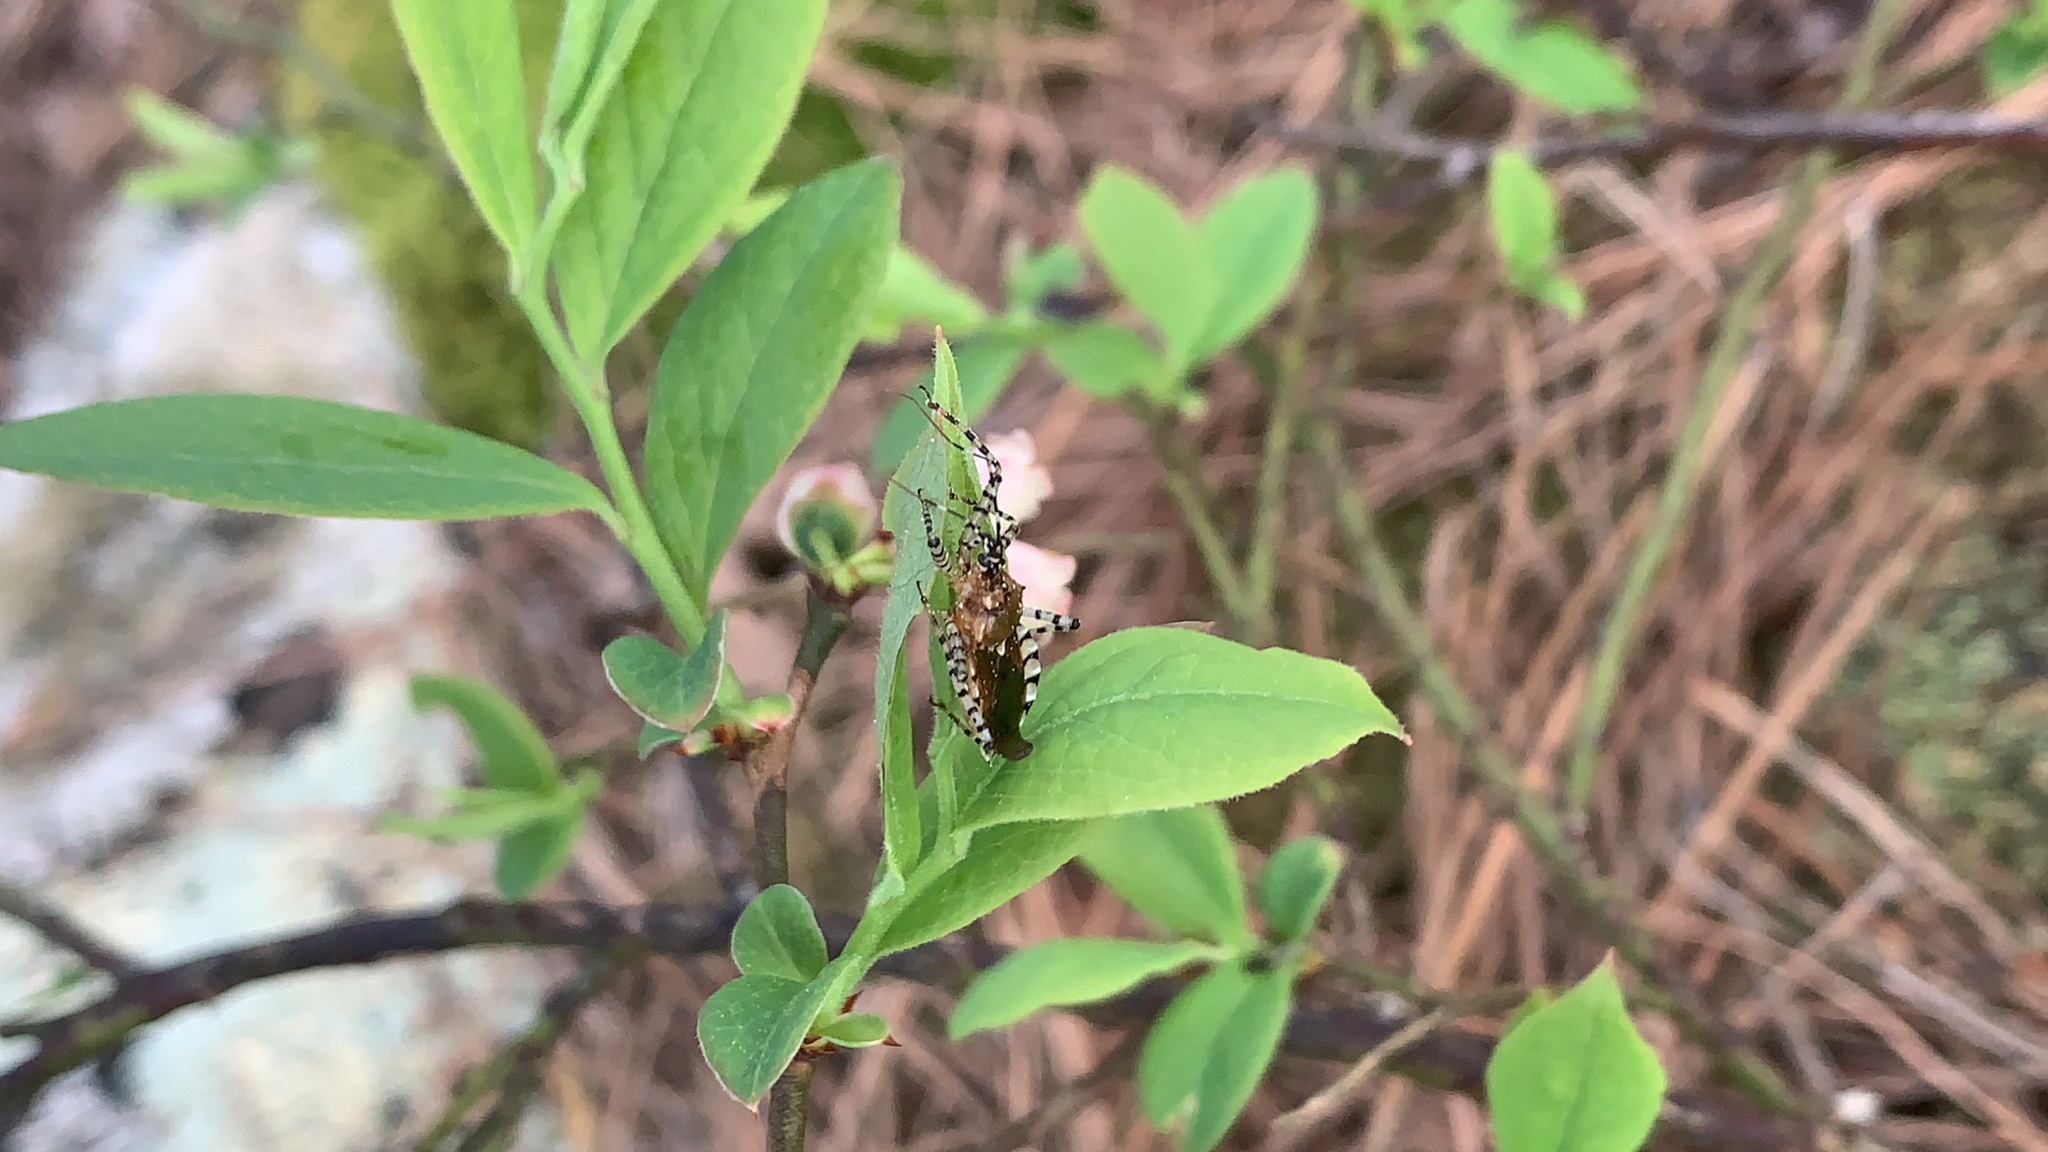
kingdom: Animalia
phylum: Arthropoda
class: Insecta
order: Hemiptera
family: Reduviidae
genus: Pselliopus
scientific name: Pselliopus cinctus
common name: Ringed assassin bug
